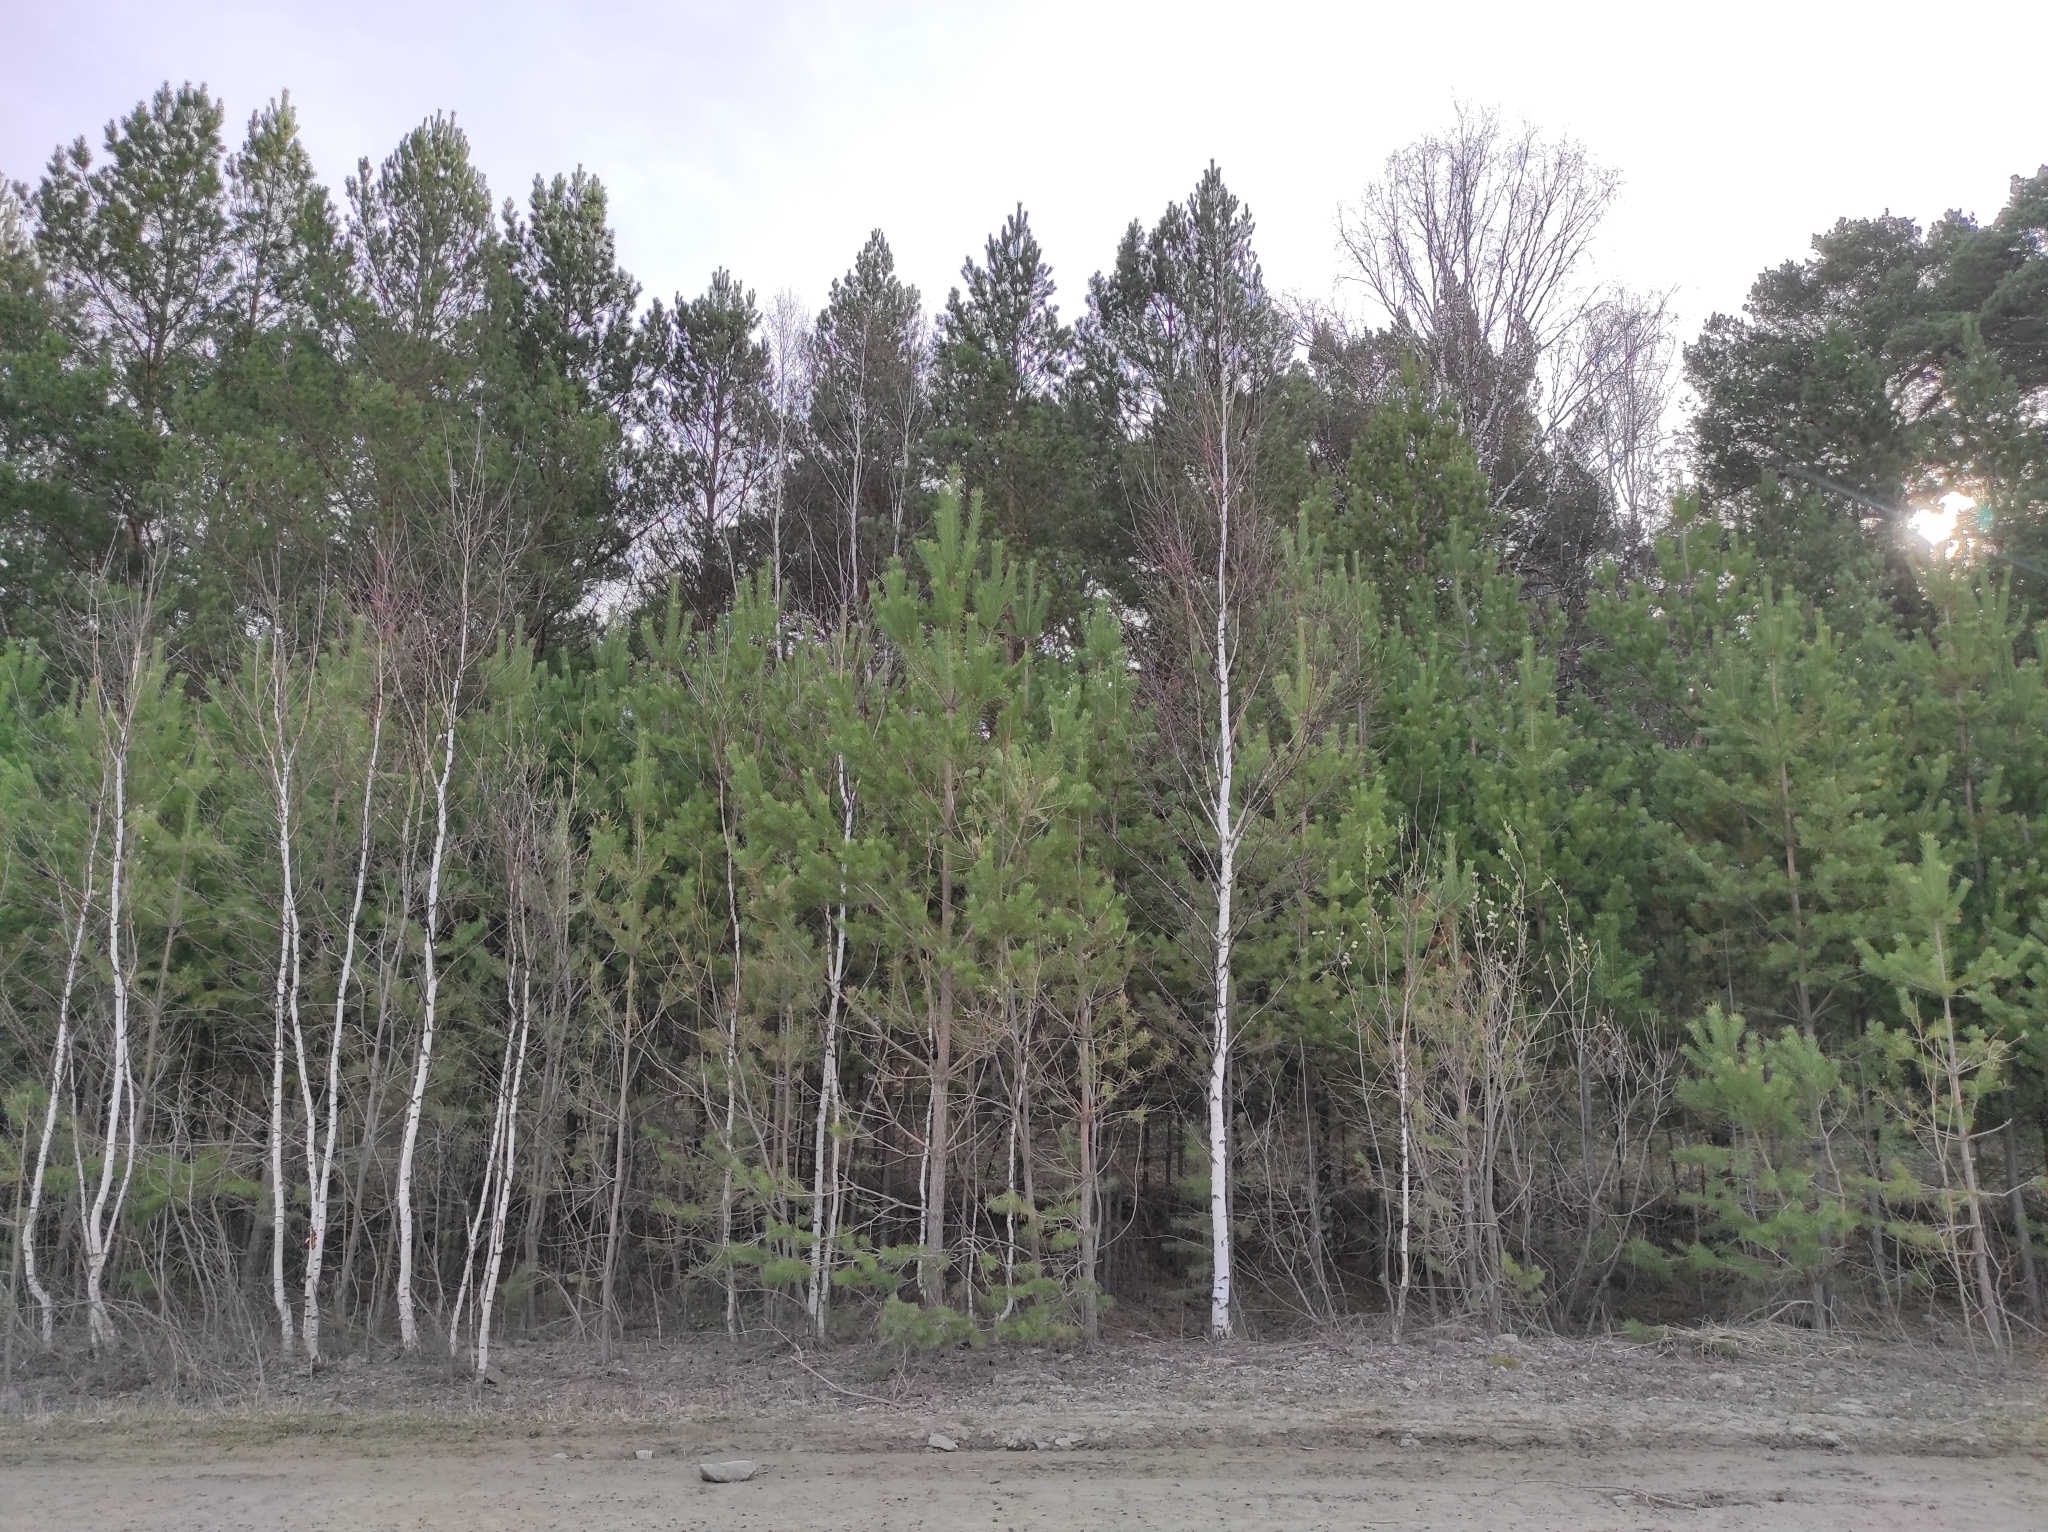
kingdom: Plantae
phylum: Tracheophyta
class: Magnoliopsida
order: Fagales
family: Betulaceae
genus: Betula
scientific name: Betula pendula
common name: Silver birch
